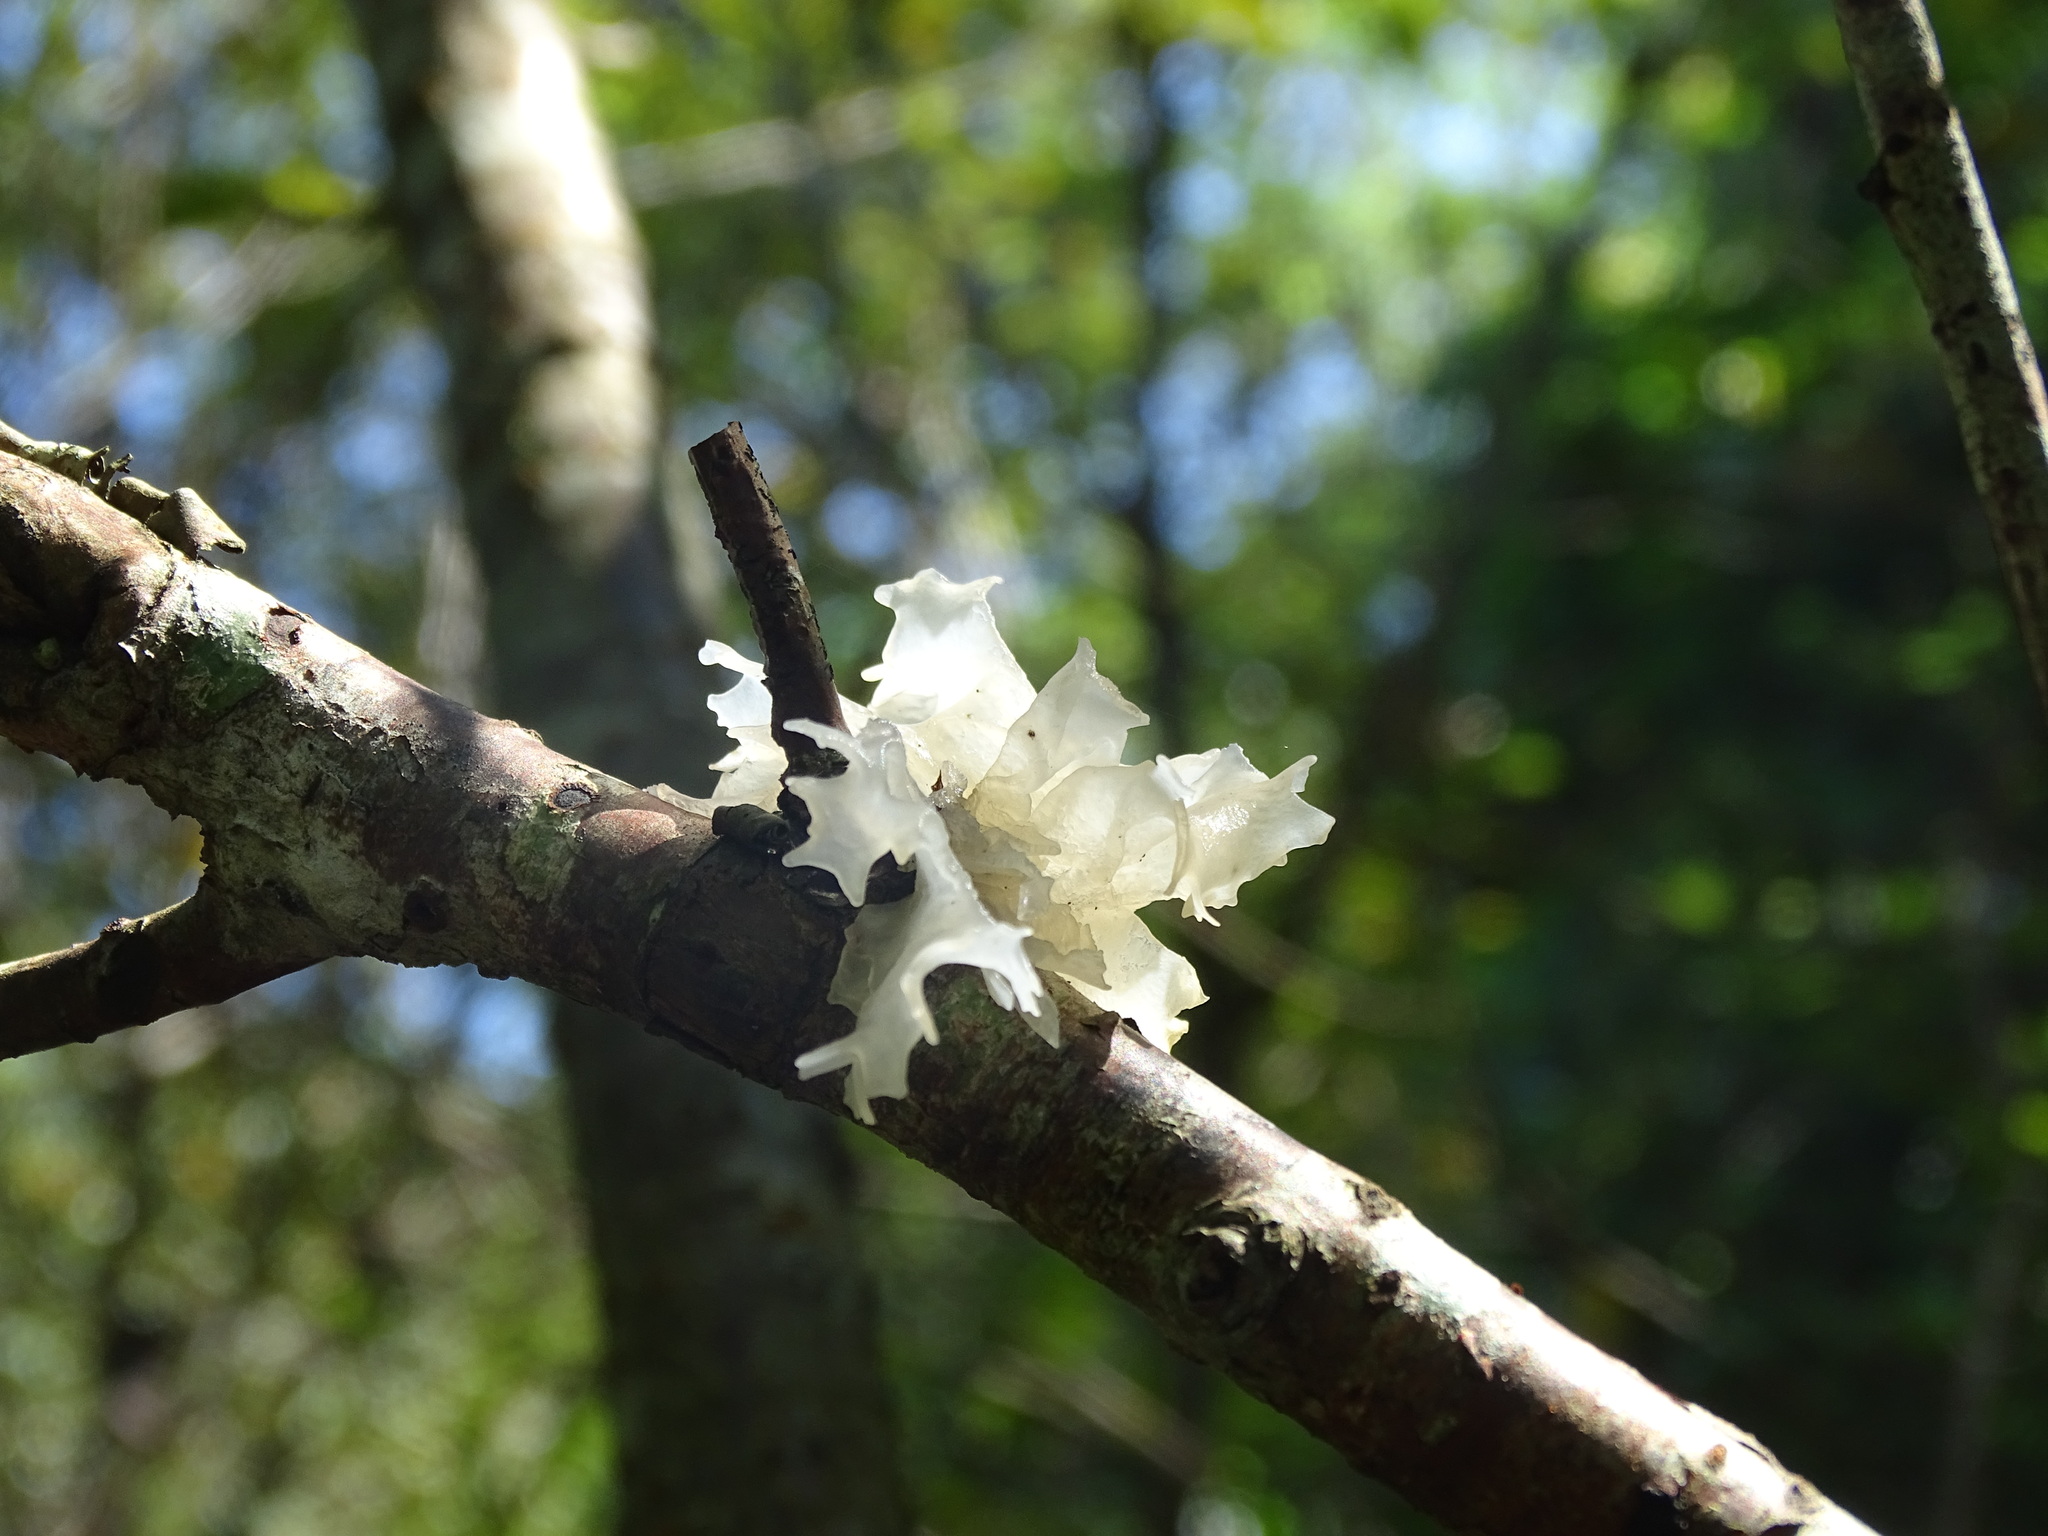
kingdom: Fungi
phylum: Basidiomycota
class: Tremellomycetes
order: Tremellales
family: Tremellaceae
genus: Tremella
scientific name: Tremella fuciformis
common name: Snow fungus
